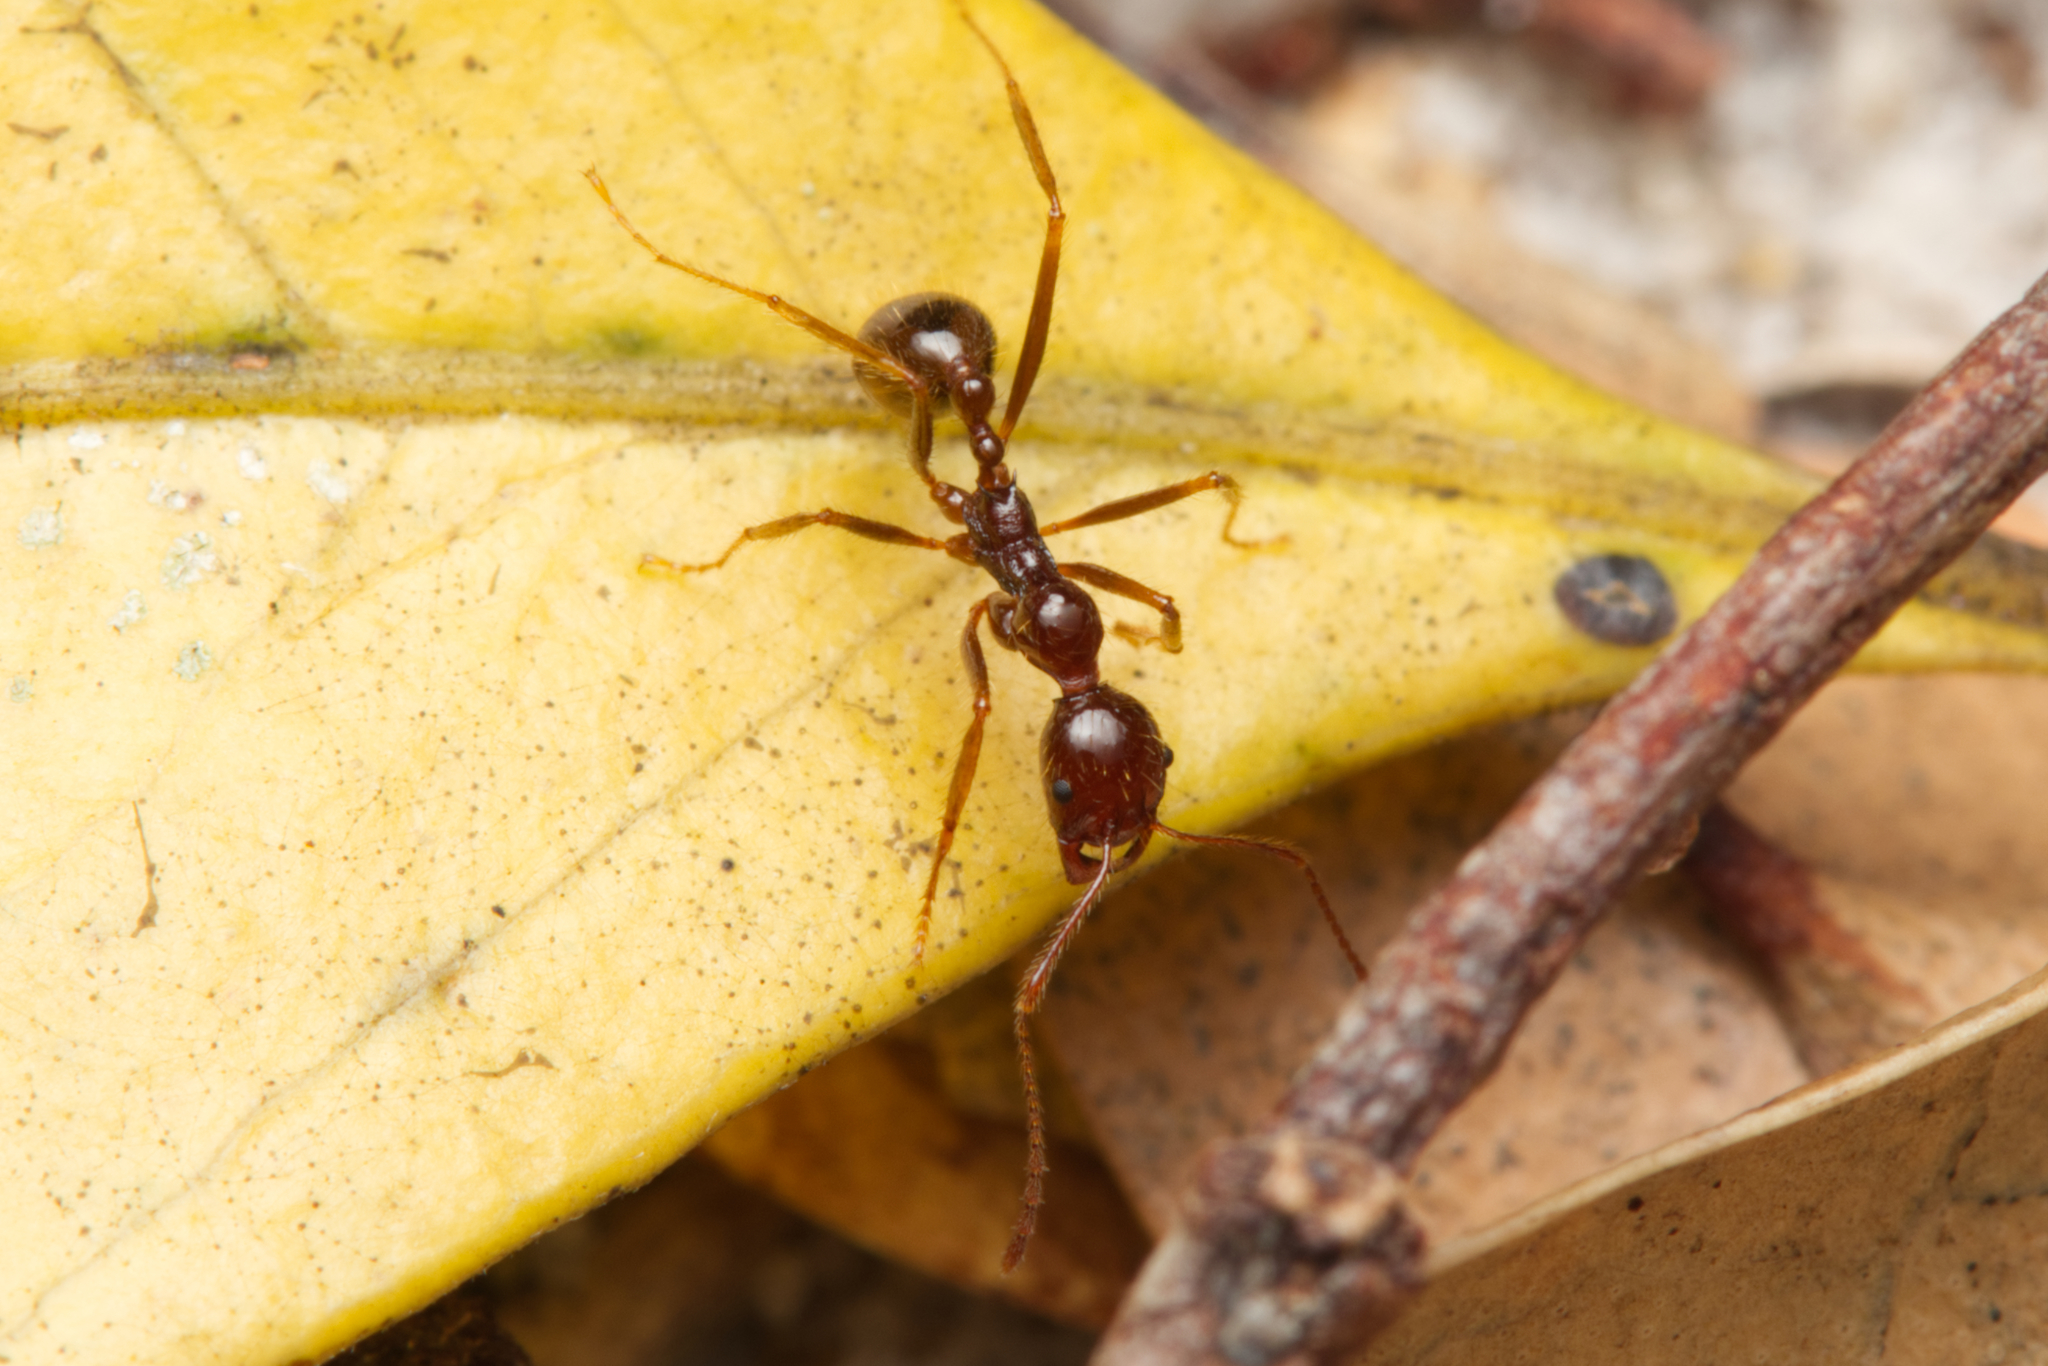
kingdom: Animalia
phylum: Arthropoda
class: Insecta
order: Hymenoptera
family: Formicidae
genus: Aphaenogaster
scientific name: Aphaenogaster longiceps
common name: Funnel ant
